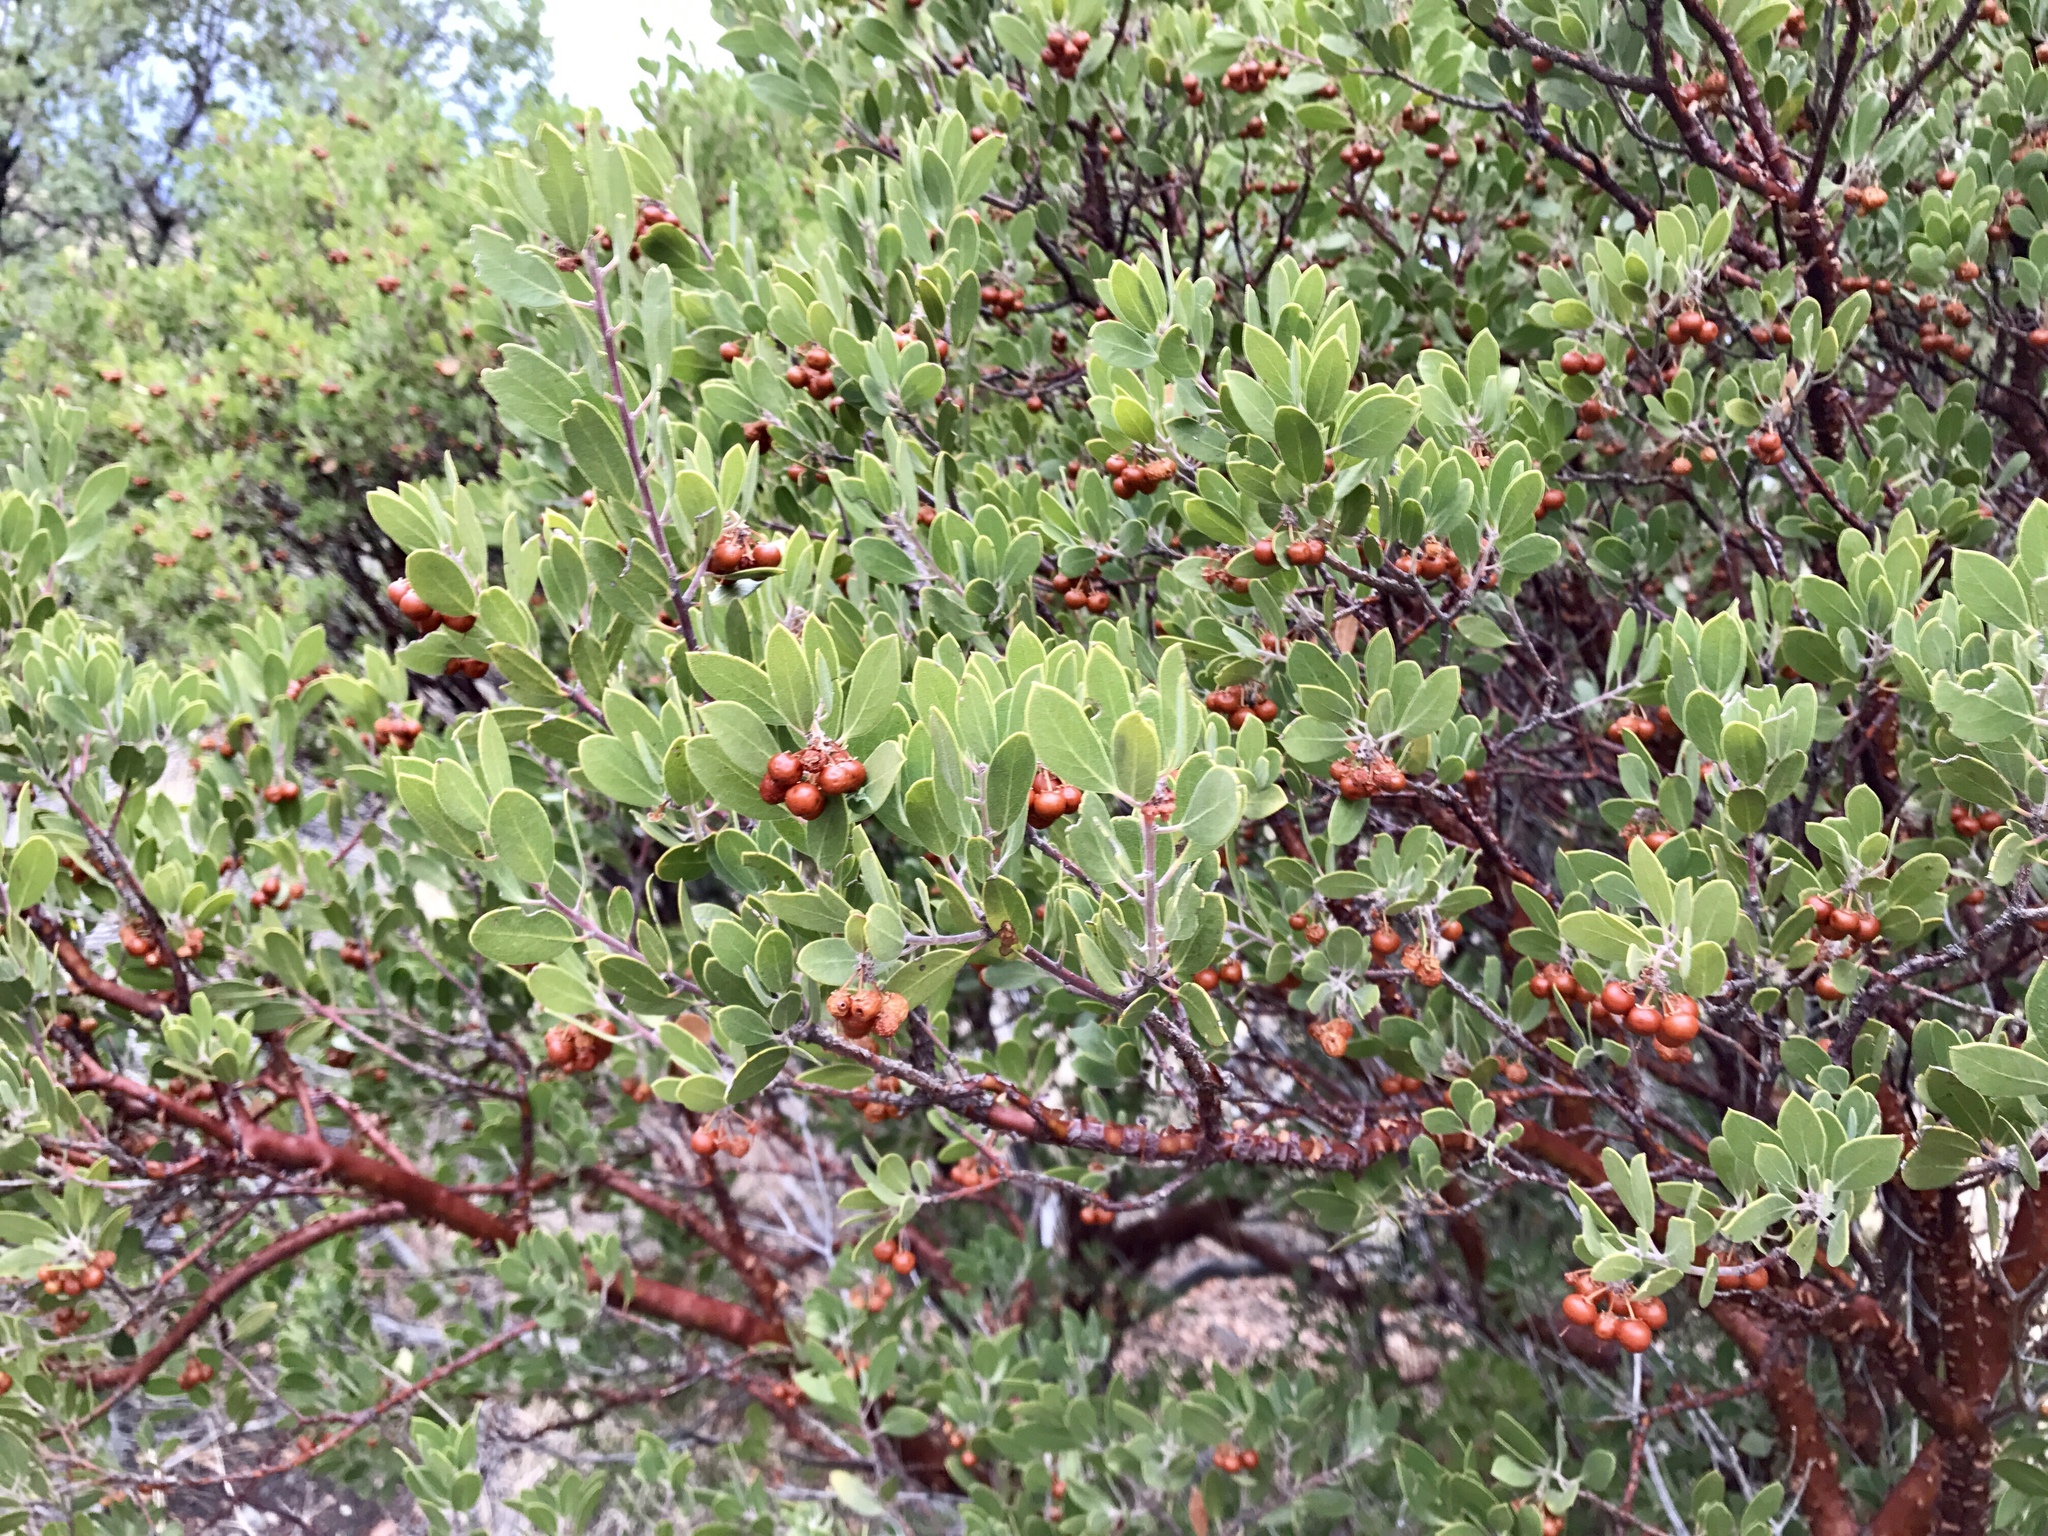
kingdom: Plantae
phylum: Tracheophyta
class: Magnoliopsida
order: Ericales
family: Ericaceae
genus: Arctostaphylos
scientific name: Arctostaphylos pungens
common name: Mexican manzanita
